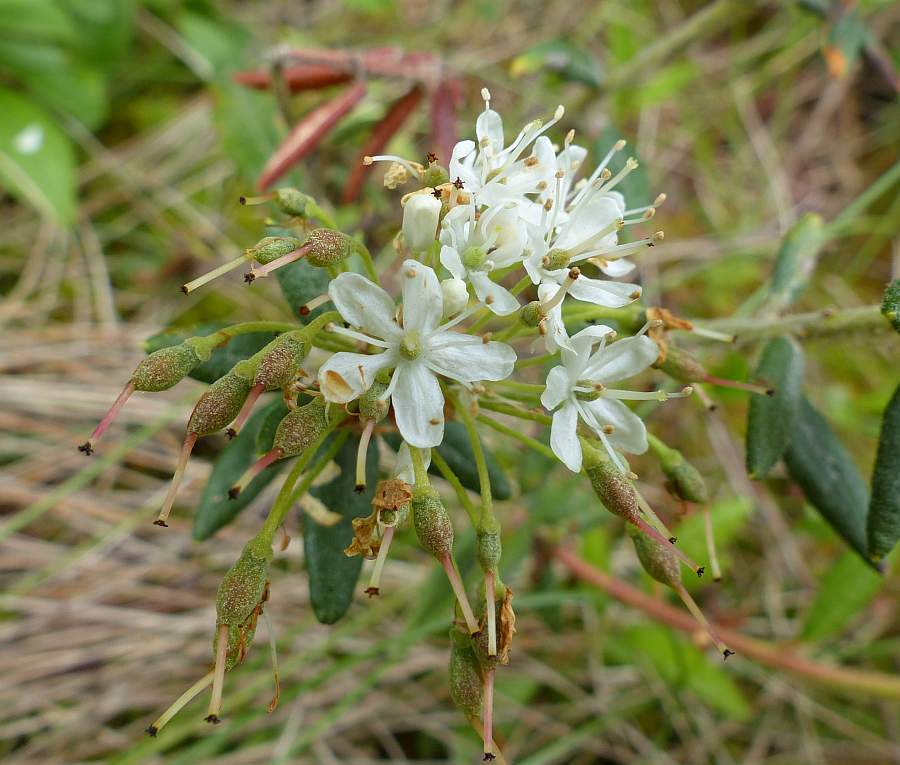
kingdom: Plantae
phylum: Tracheophyta
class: Magnoliopsida
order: Ericales
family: Ericaceae
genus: Rhododendron
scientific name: Rhododendron groenlandicum
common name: Bog labrador tea
